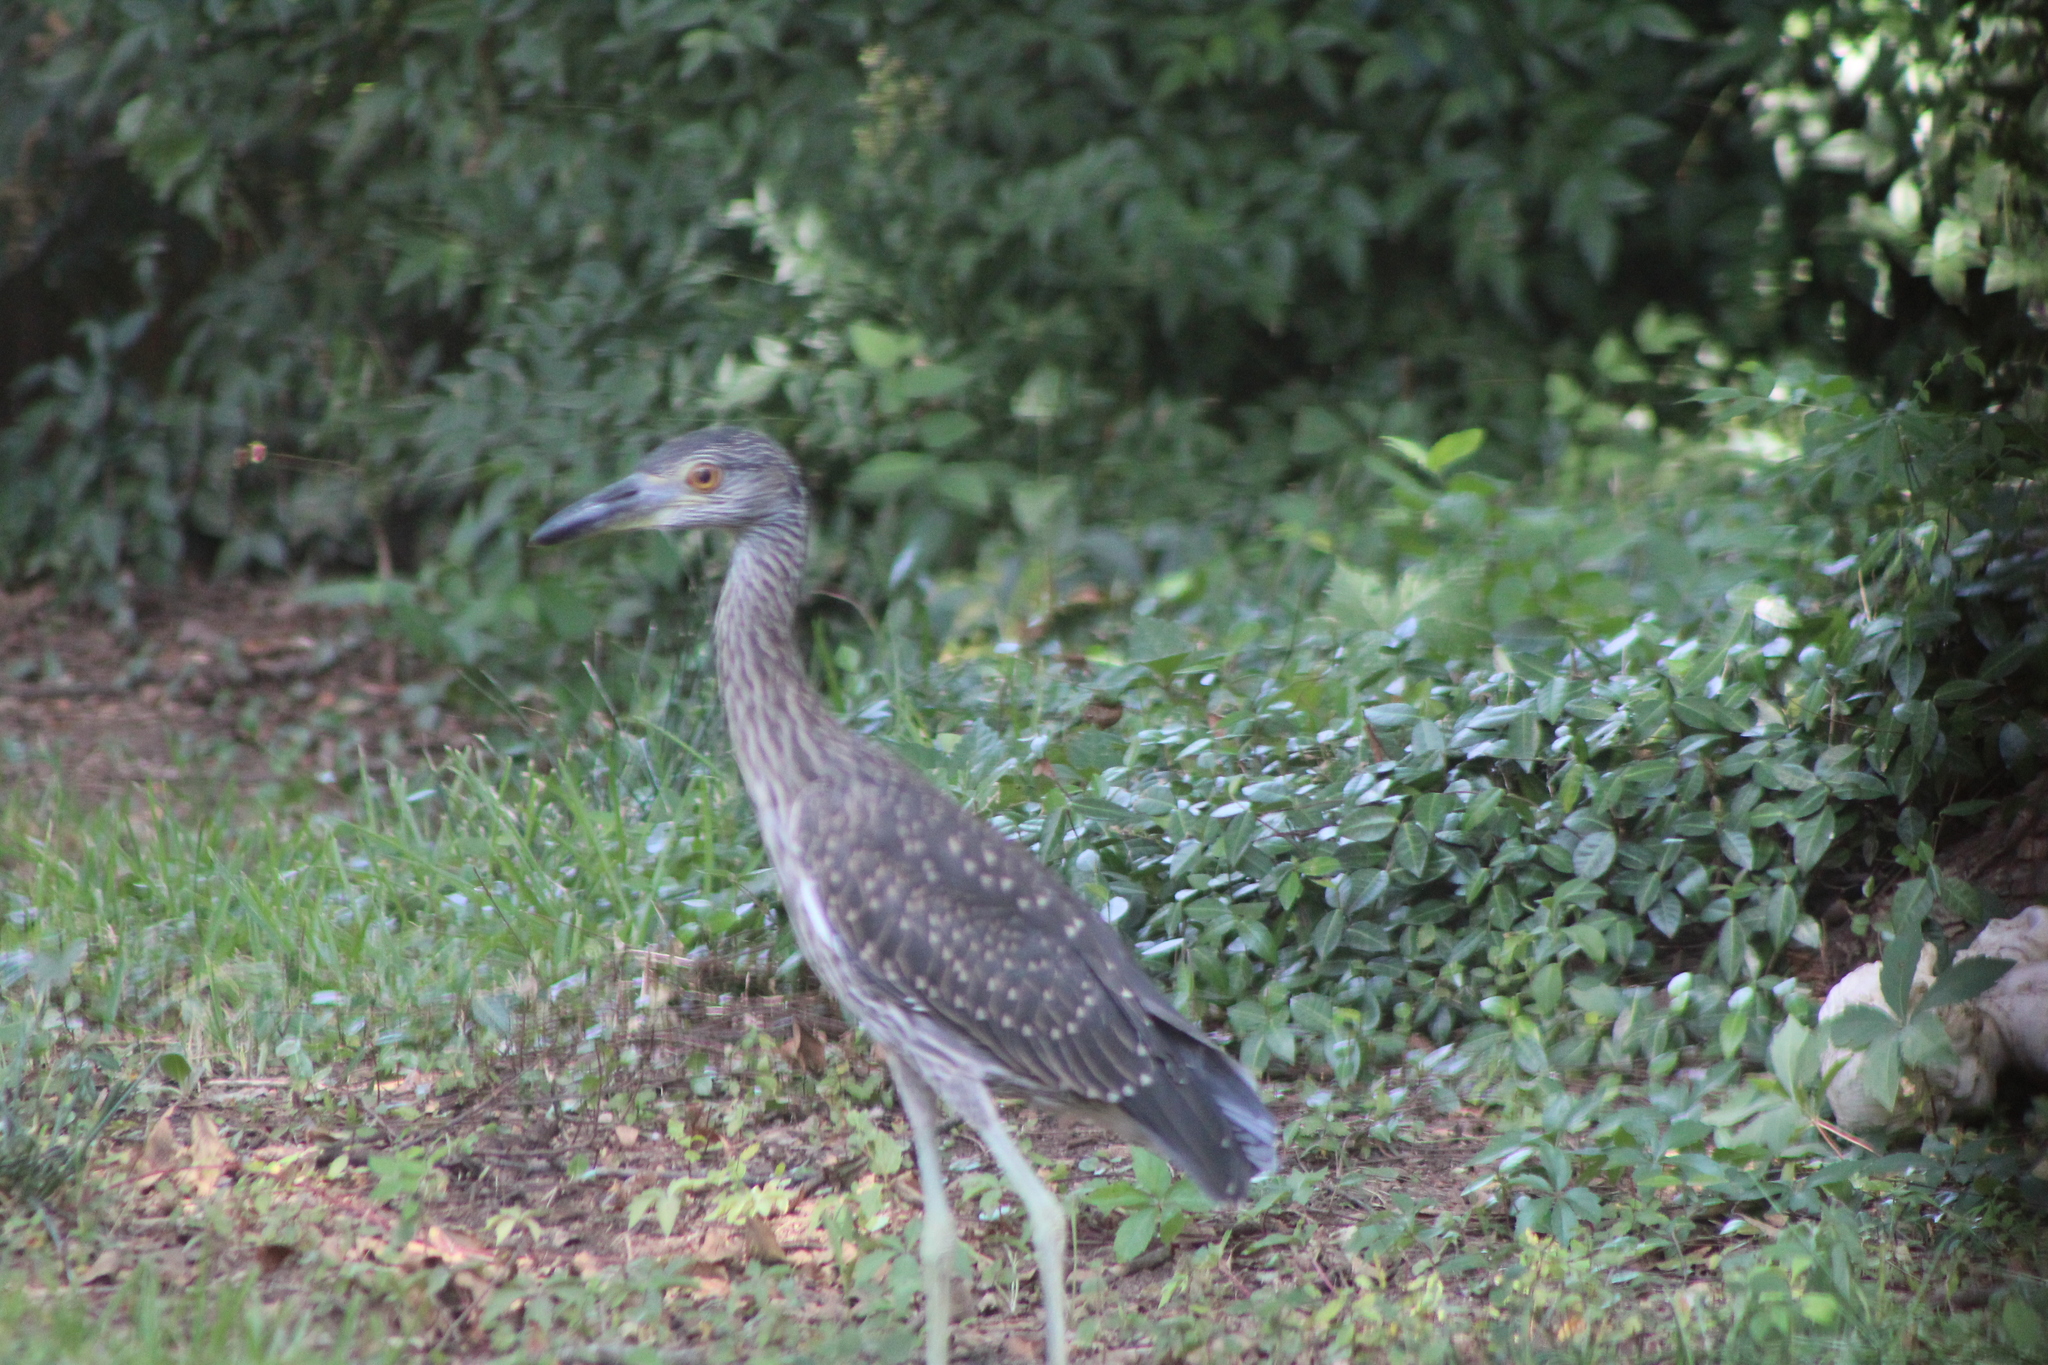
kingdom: Animalia
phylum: Chordata
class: Aves
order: Pelecaniformes
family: Ardeidae
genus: Nyctanassa
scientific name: Nyctanassa violacea
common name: Yellow-crowned night heron
